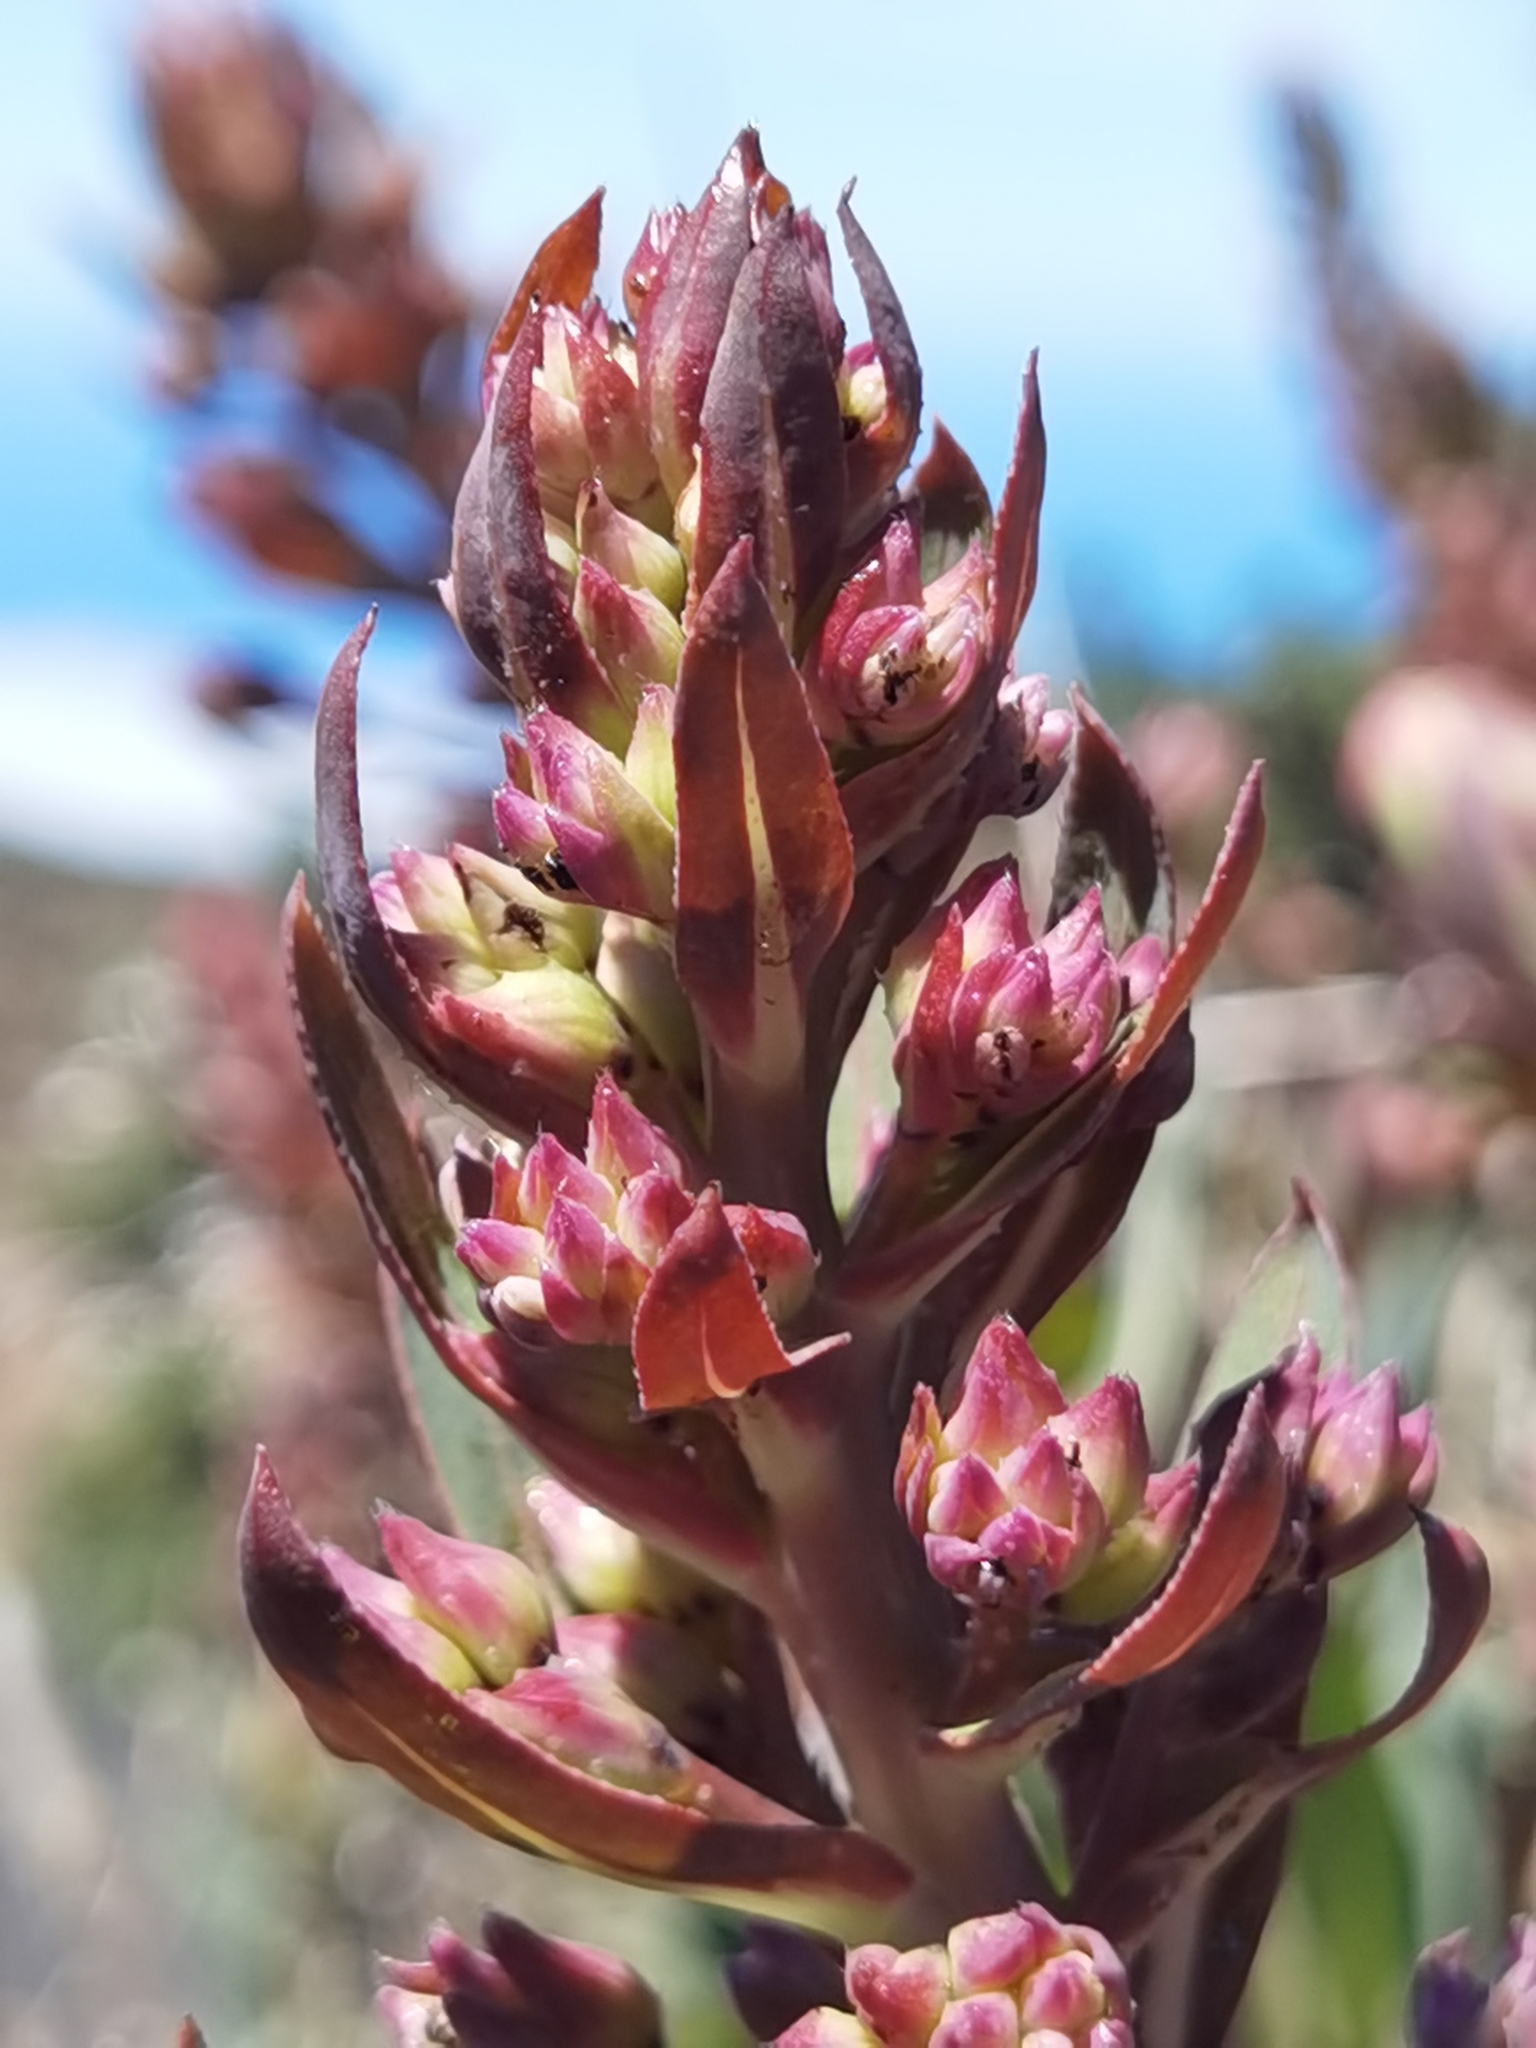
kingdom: Plantae
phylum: Tracheophyta
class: Magnoliopsida
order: Boraginales
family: Boraginaceae
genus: Echium
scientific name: Echium thyrsiflorum
